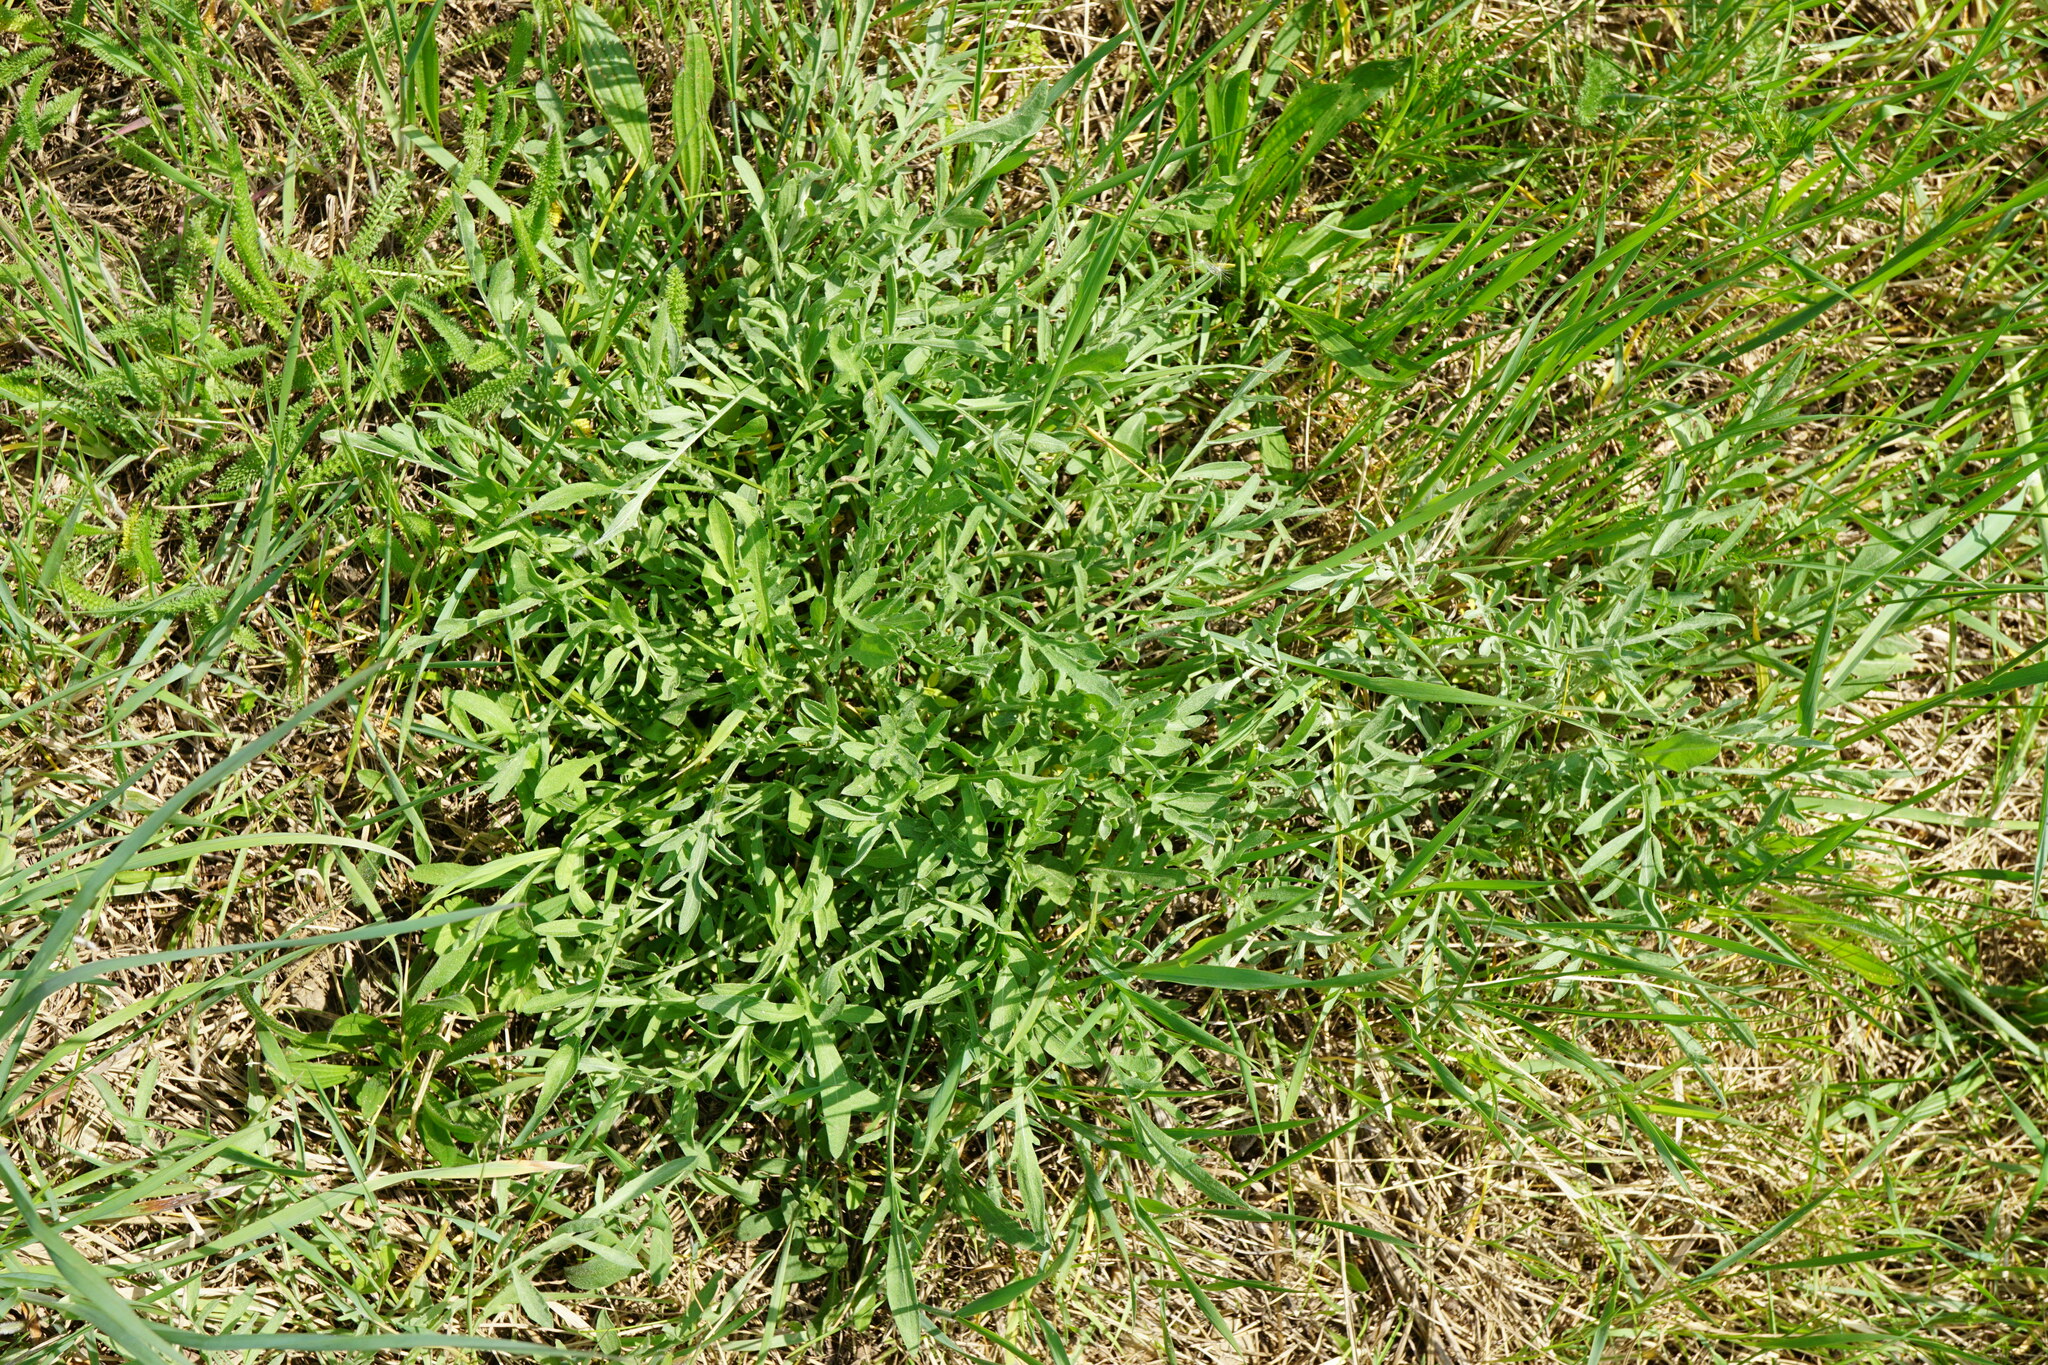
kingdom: Plantae
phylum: Tracheophyta
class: Magnoliopsida
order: Asterales
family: Asteraceae
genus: Centaurea
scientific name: Centaurea stoebe
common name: Spotted knapweed
